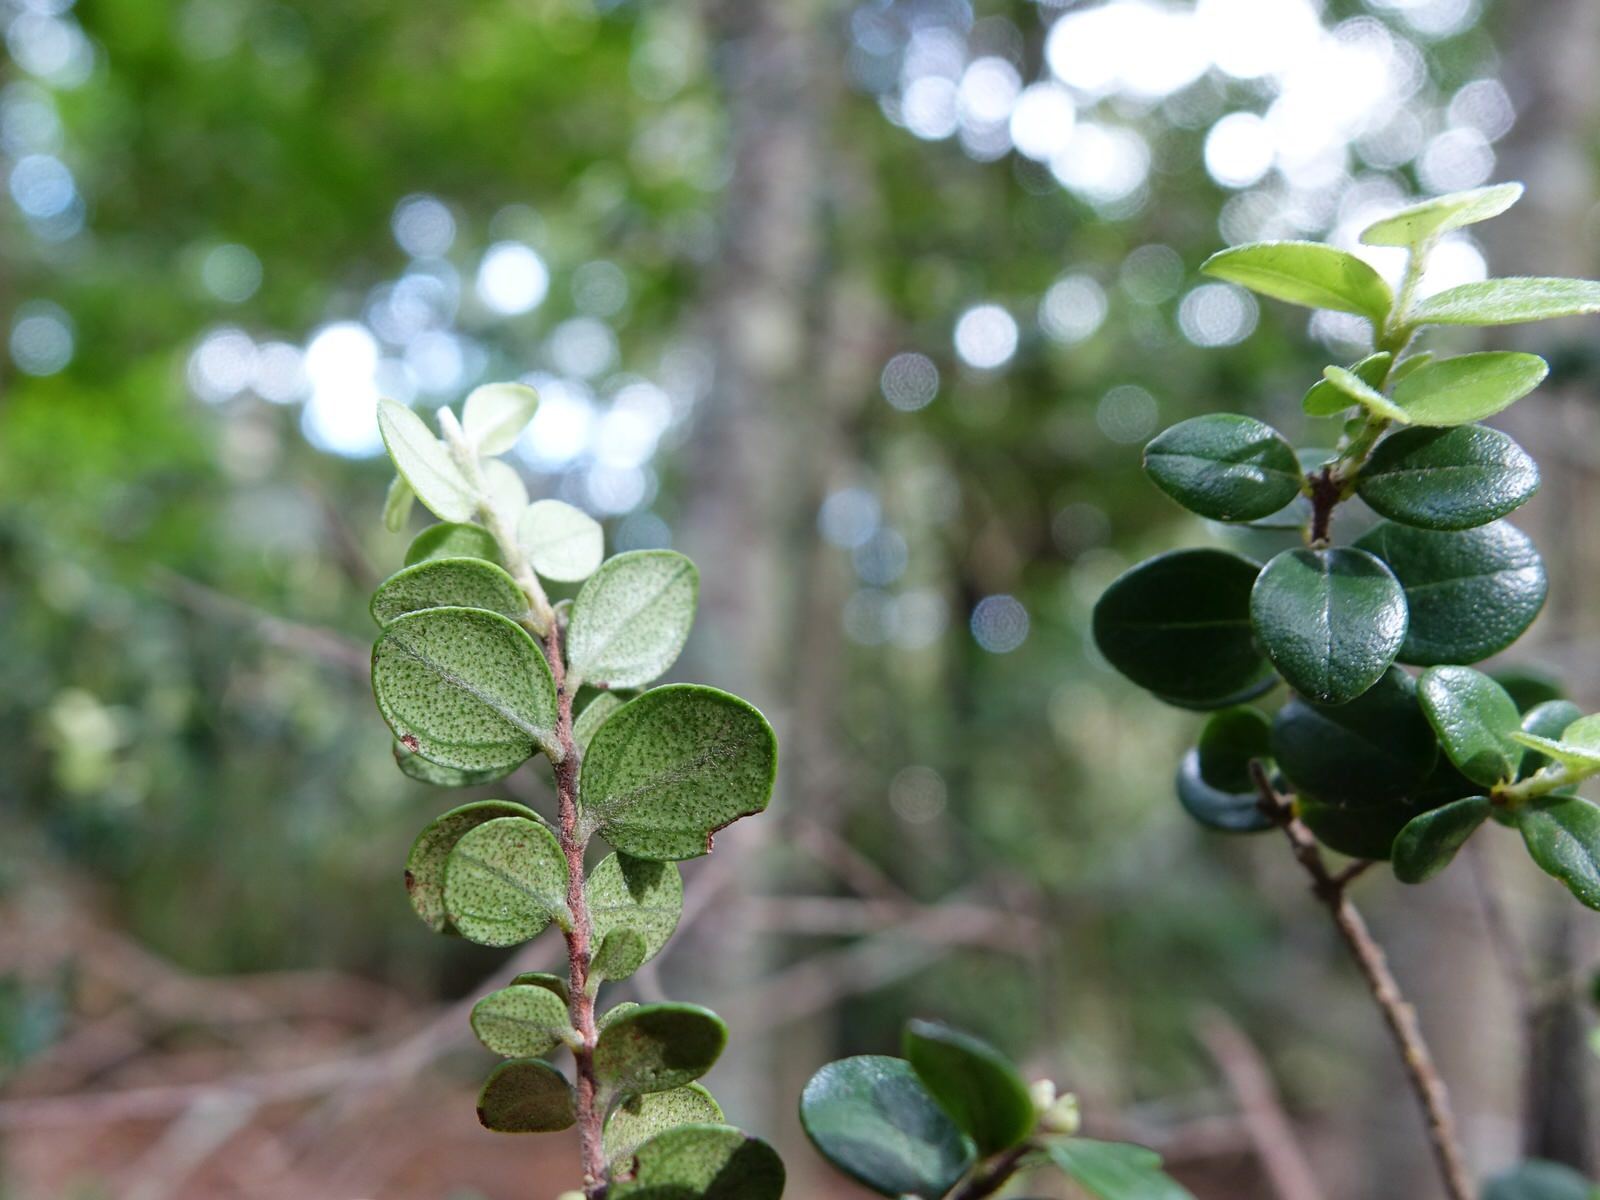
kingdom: Plantae
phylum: Tracheophyta
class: Magnoliopsida
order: Myrtales
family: Myrtaceae
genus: Metrosideros
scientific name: Metrosideros perforata
